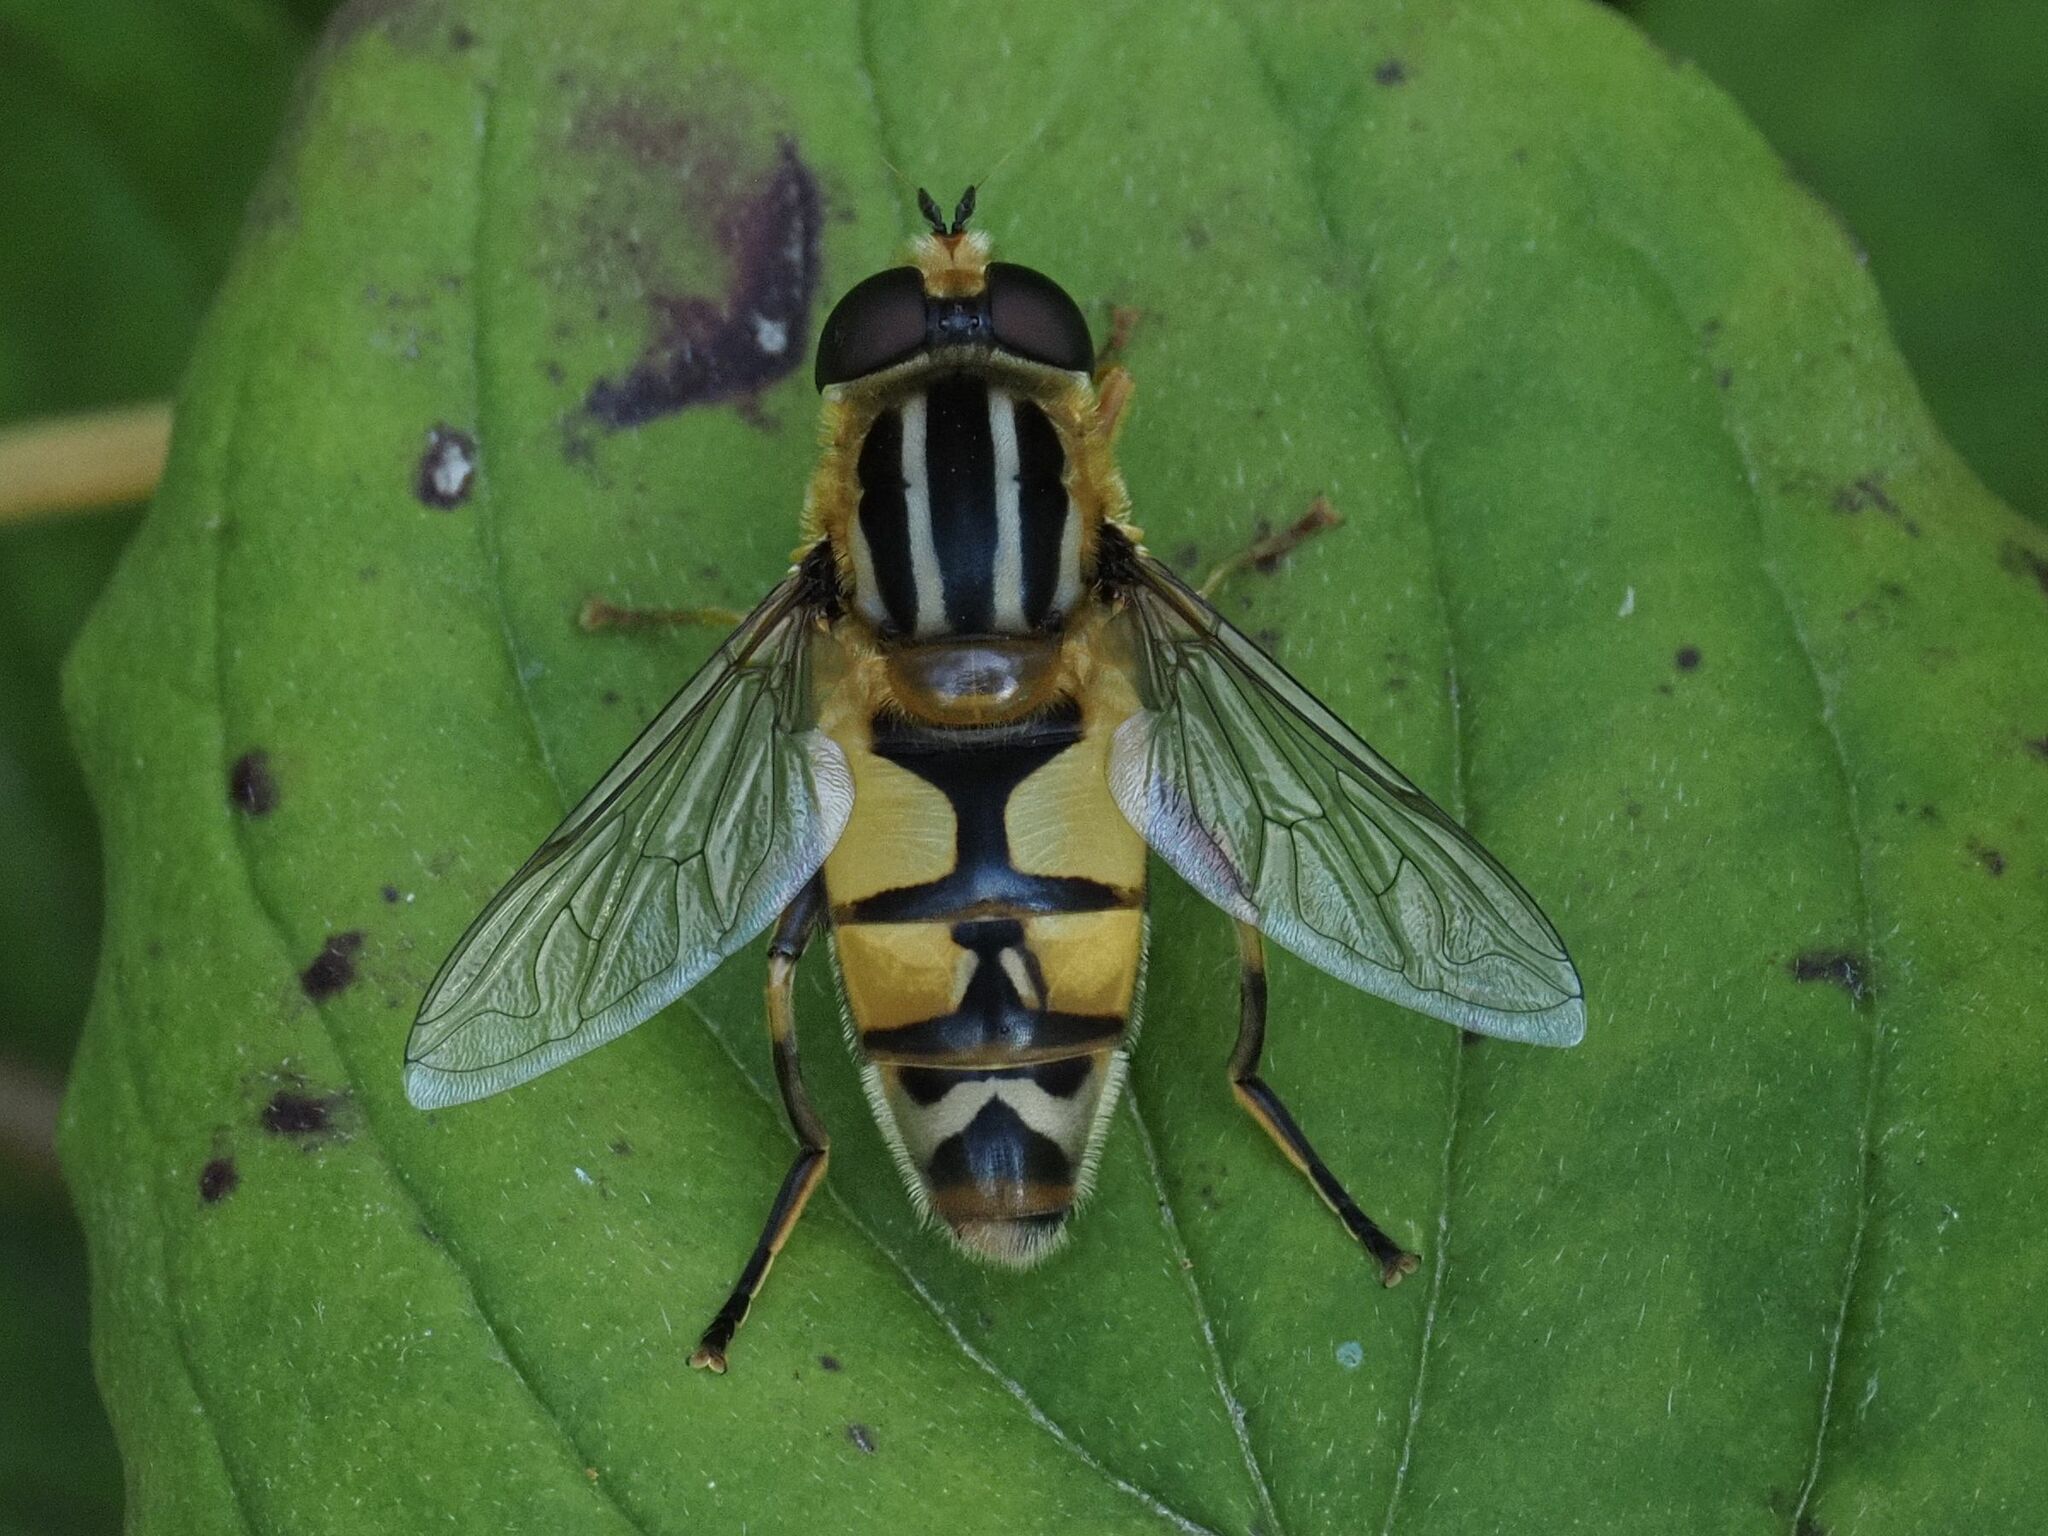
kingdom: Animalia
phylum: Arthropoda
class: Insecta
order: Diptera
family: Syrphidae
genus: Helophilus
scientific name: Helophilus trivittatus
